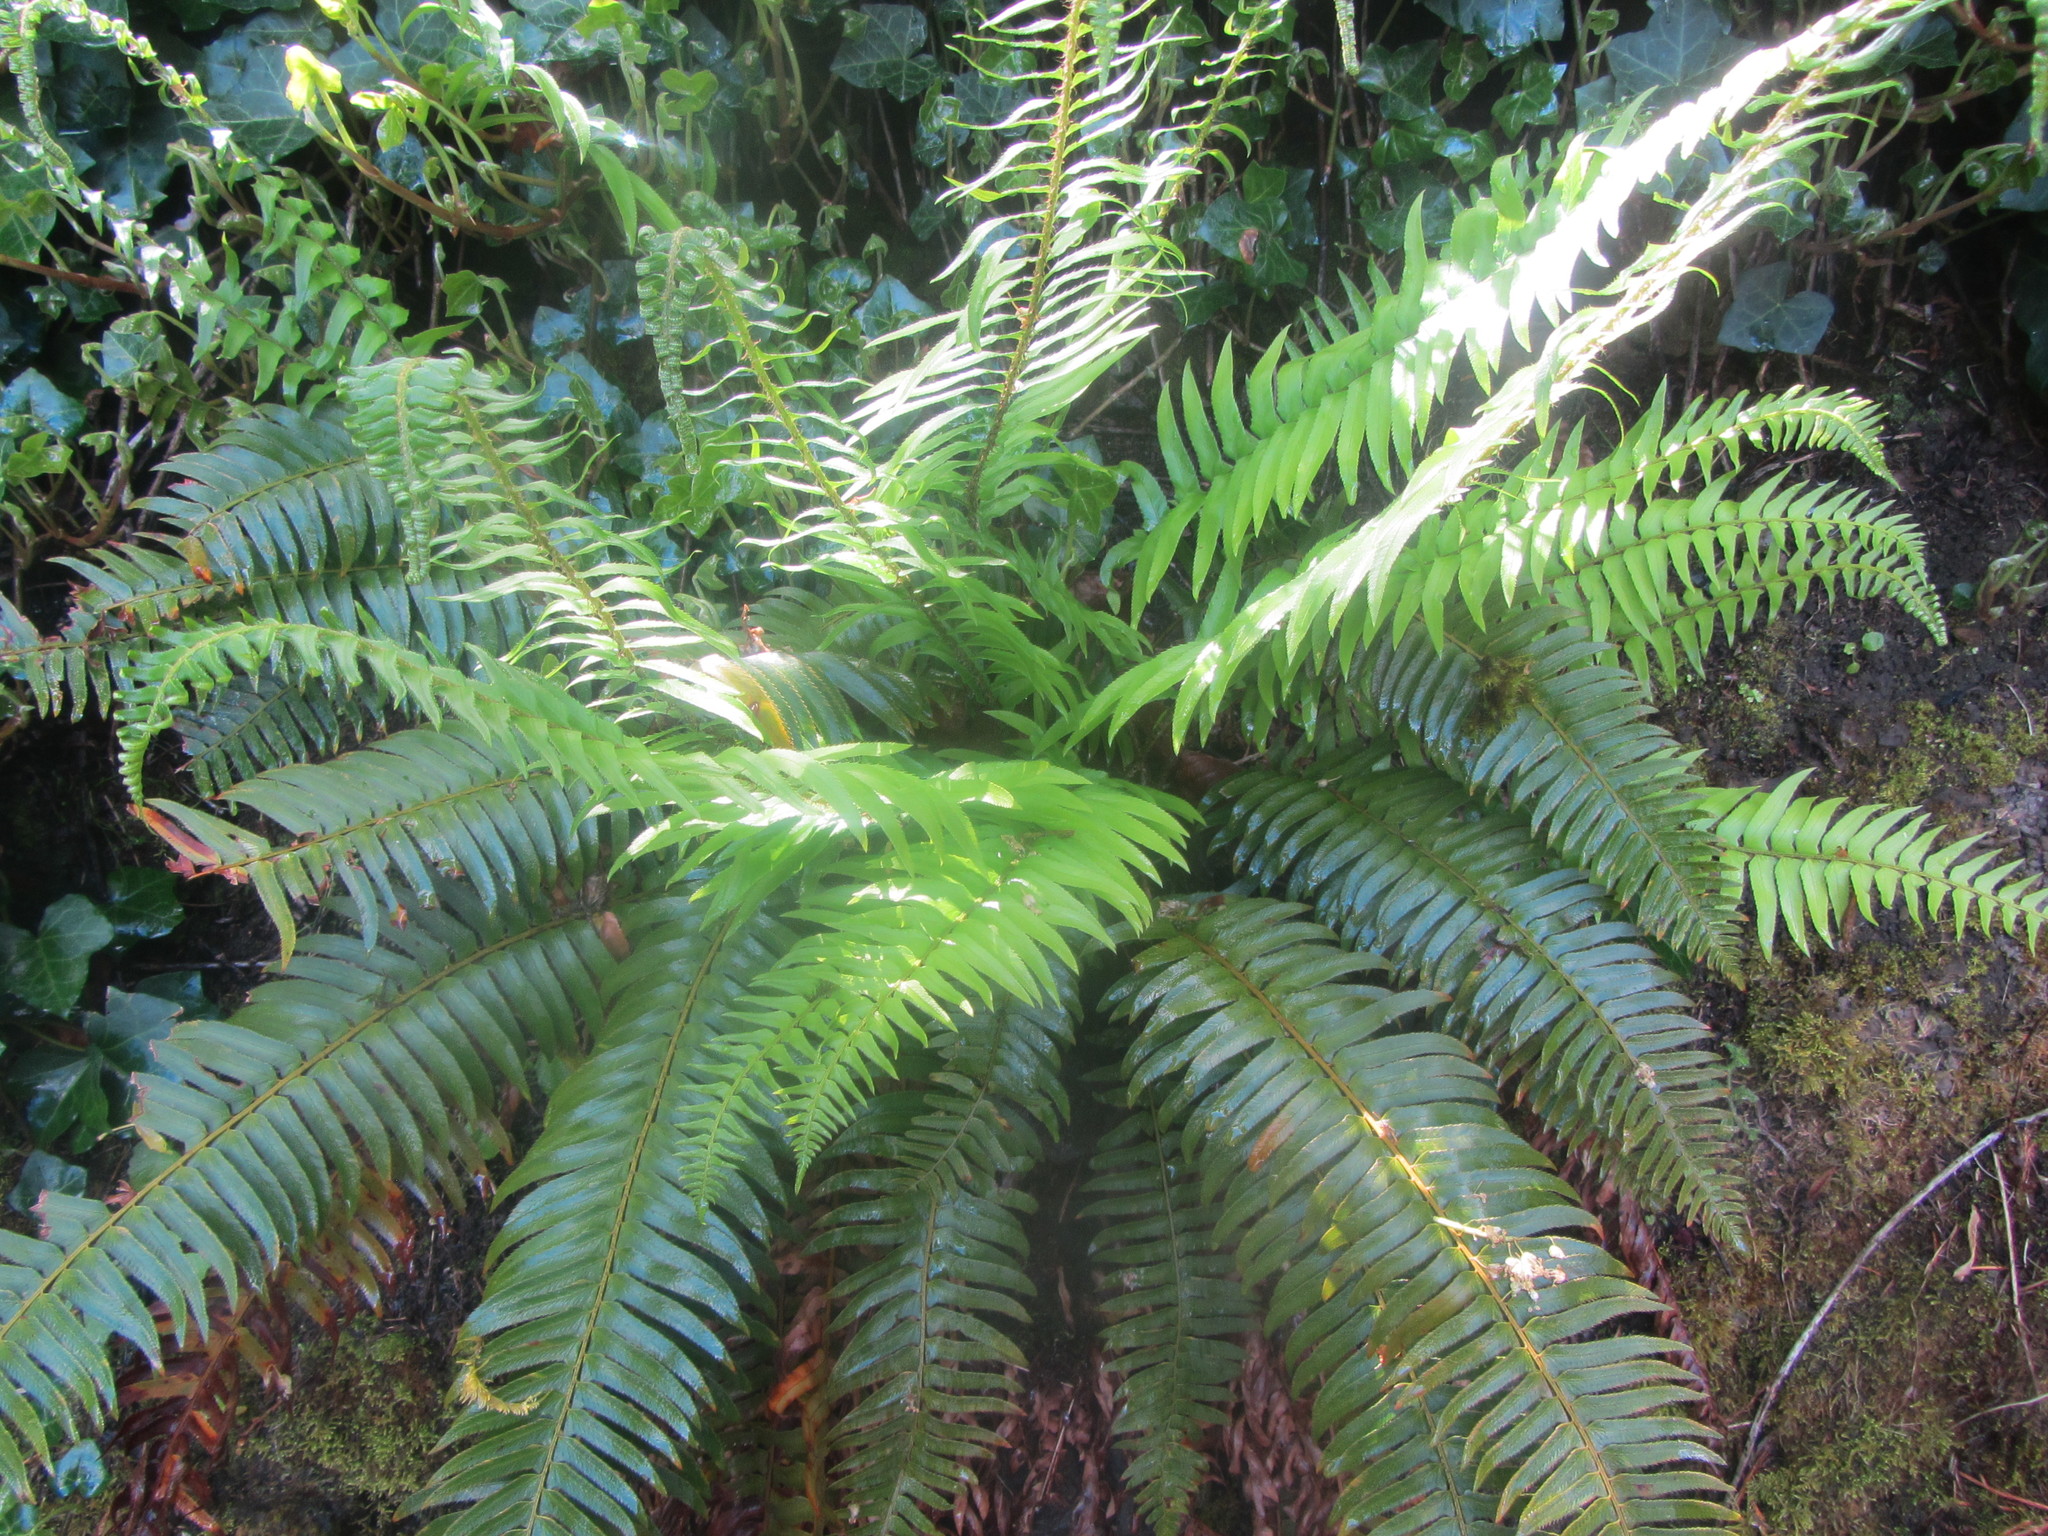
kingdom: Plantae
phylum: Tracheophyta
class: Polypodiopsida
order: Polypodiales
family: Dryopteridaceae
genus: Polystichum
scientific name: Polystichum munitum
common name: Western sword-fern
